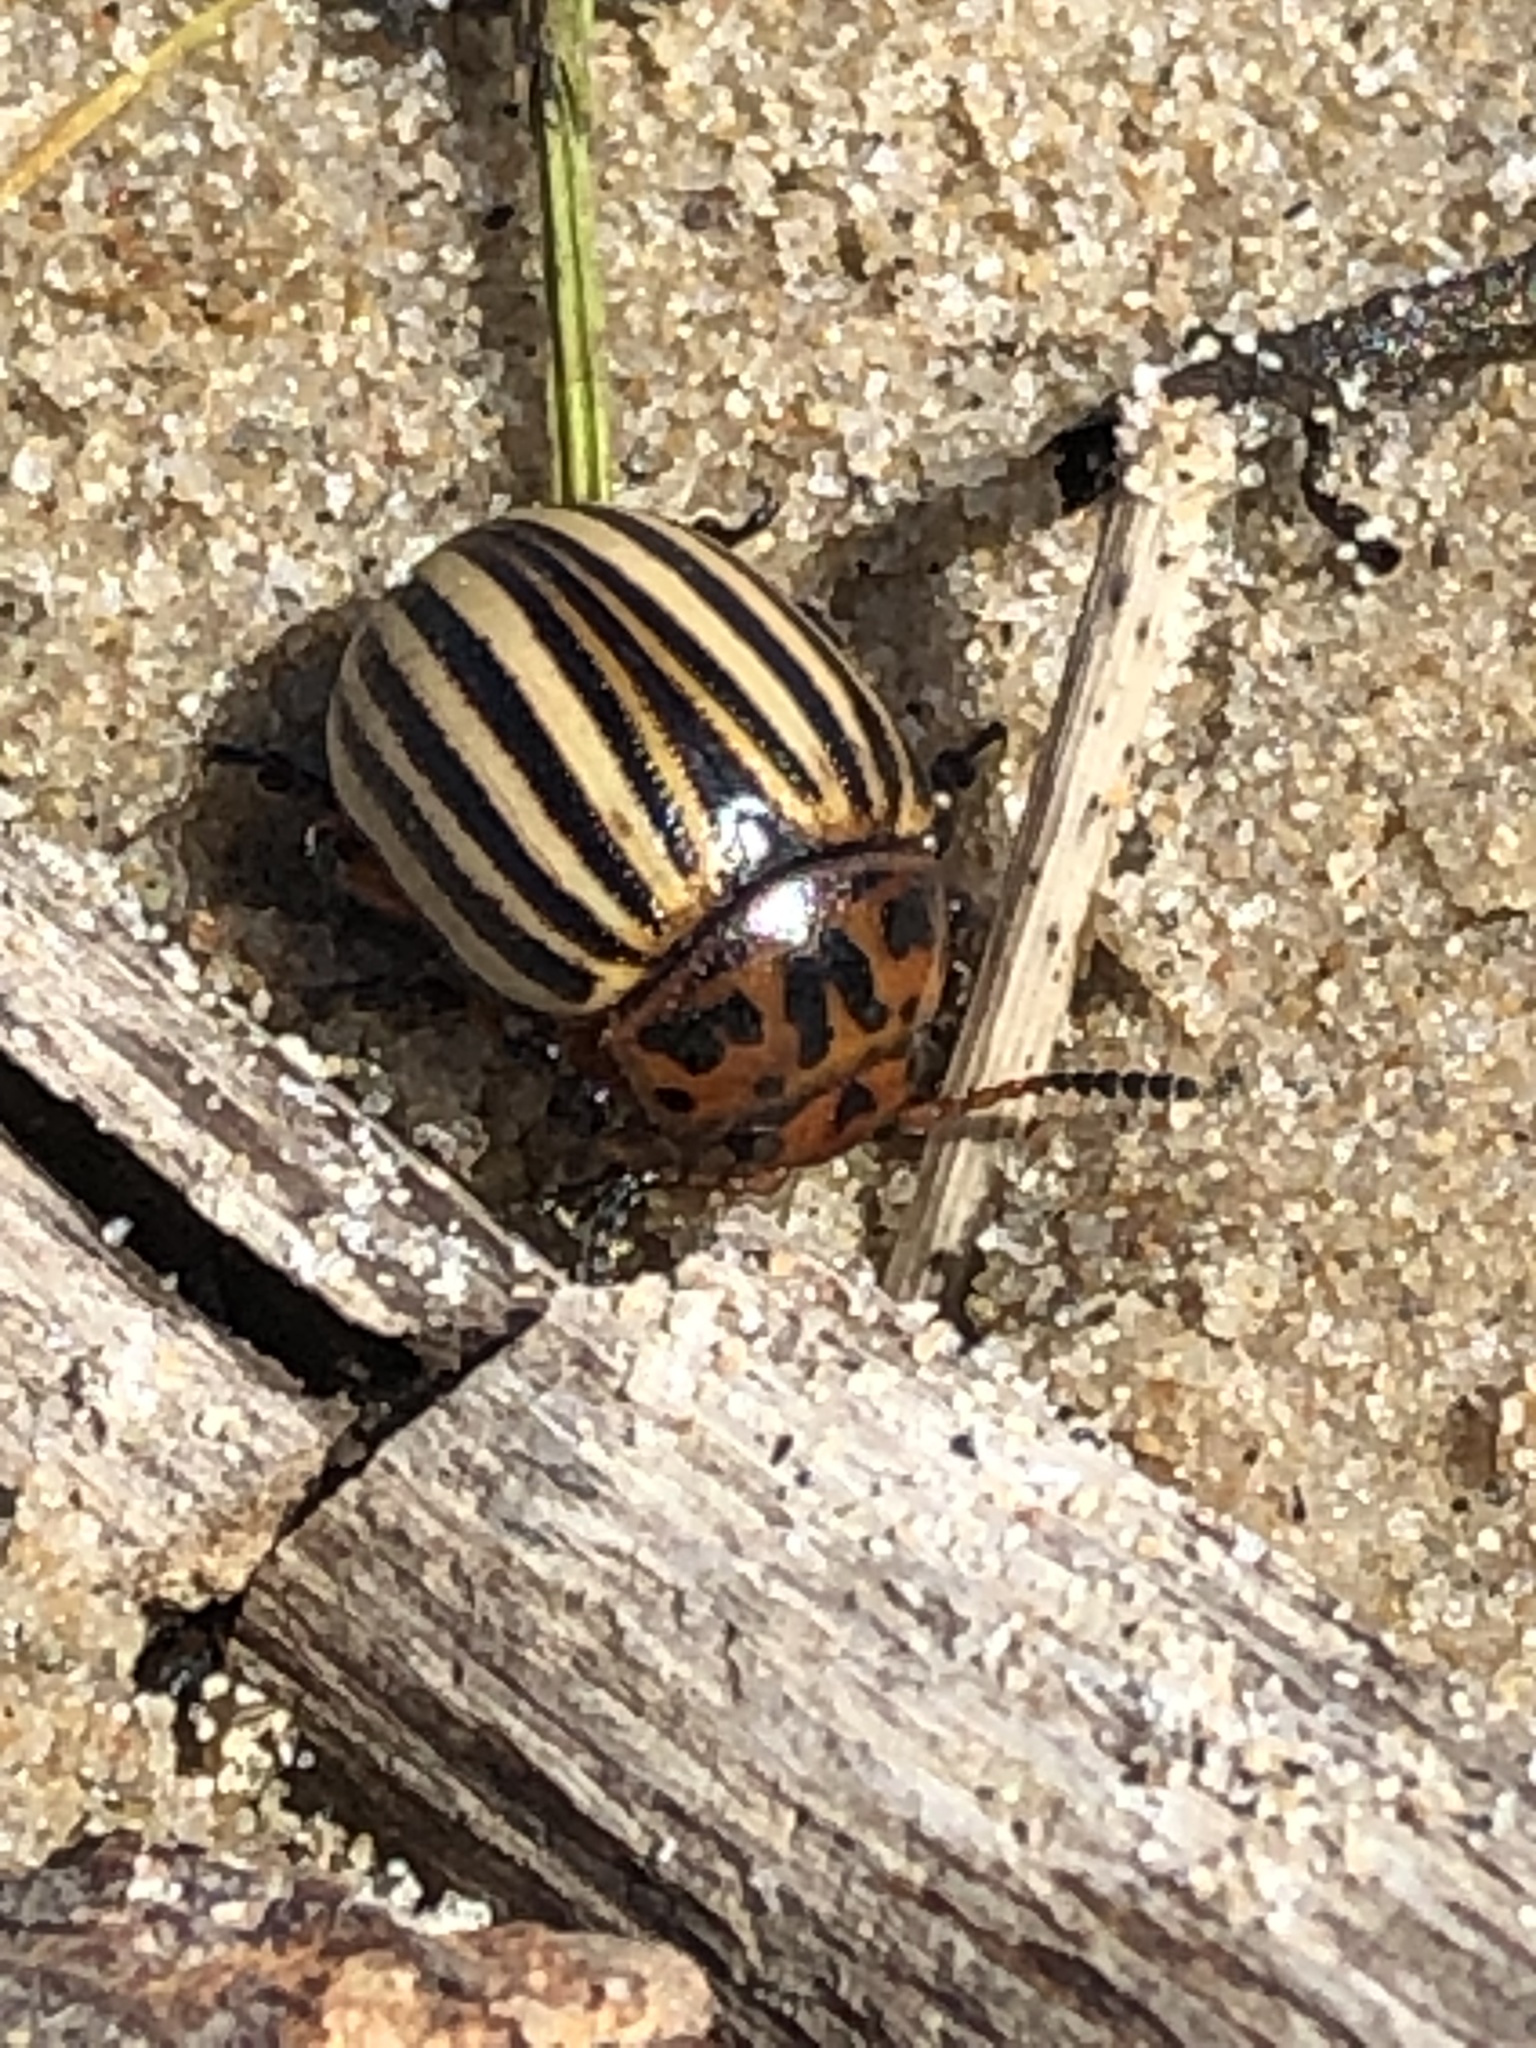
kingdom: Animalia
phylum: Arthropoda
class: Insecta
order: Coleoptera
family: Chrysomelidae
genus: Leptinotarsa
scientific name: Leptinotarsa decemlineata
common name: Colorado potato beetle
